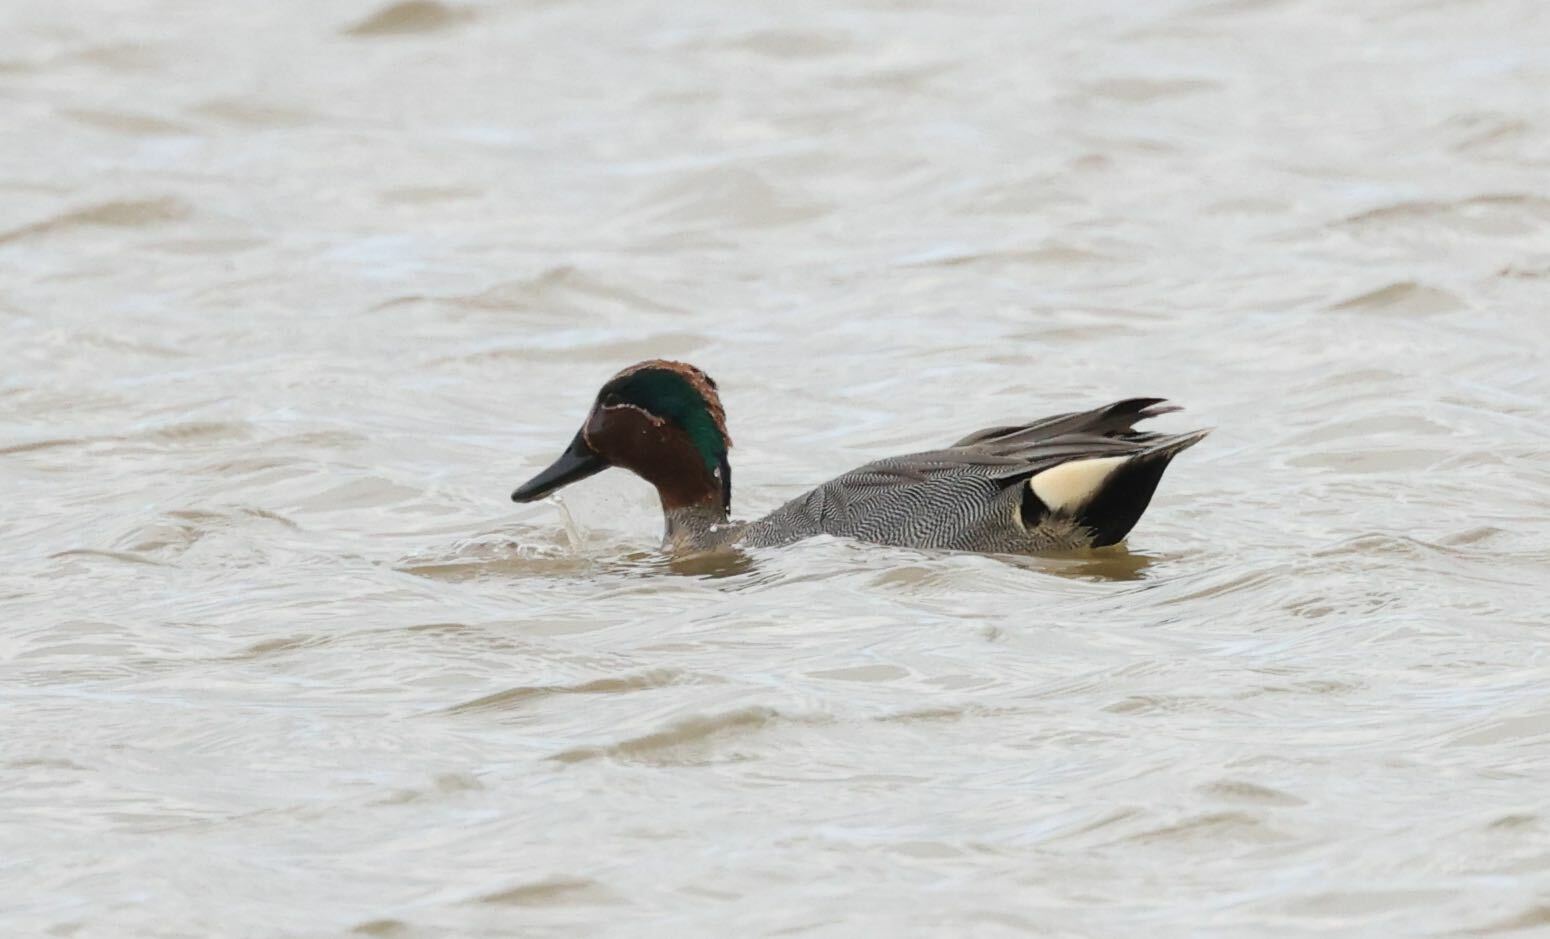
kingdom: Animalia
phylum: Chordata
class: Aves
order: Anseriformes
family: Anatidae
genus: Anas
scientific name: Anas crecca
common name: Eurasian teal
